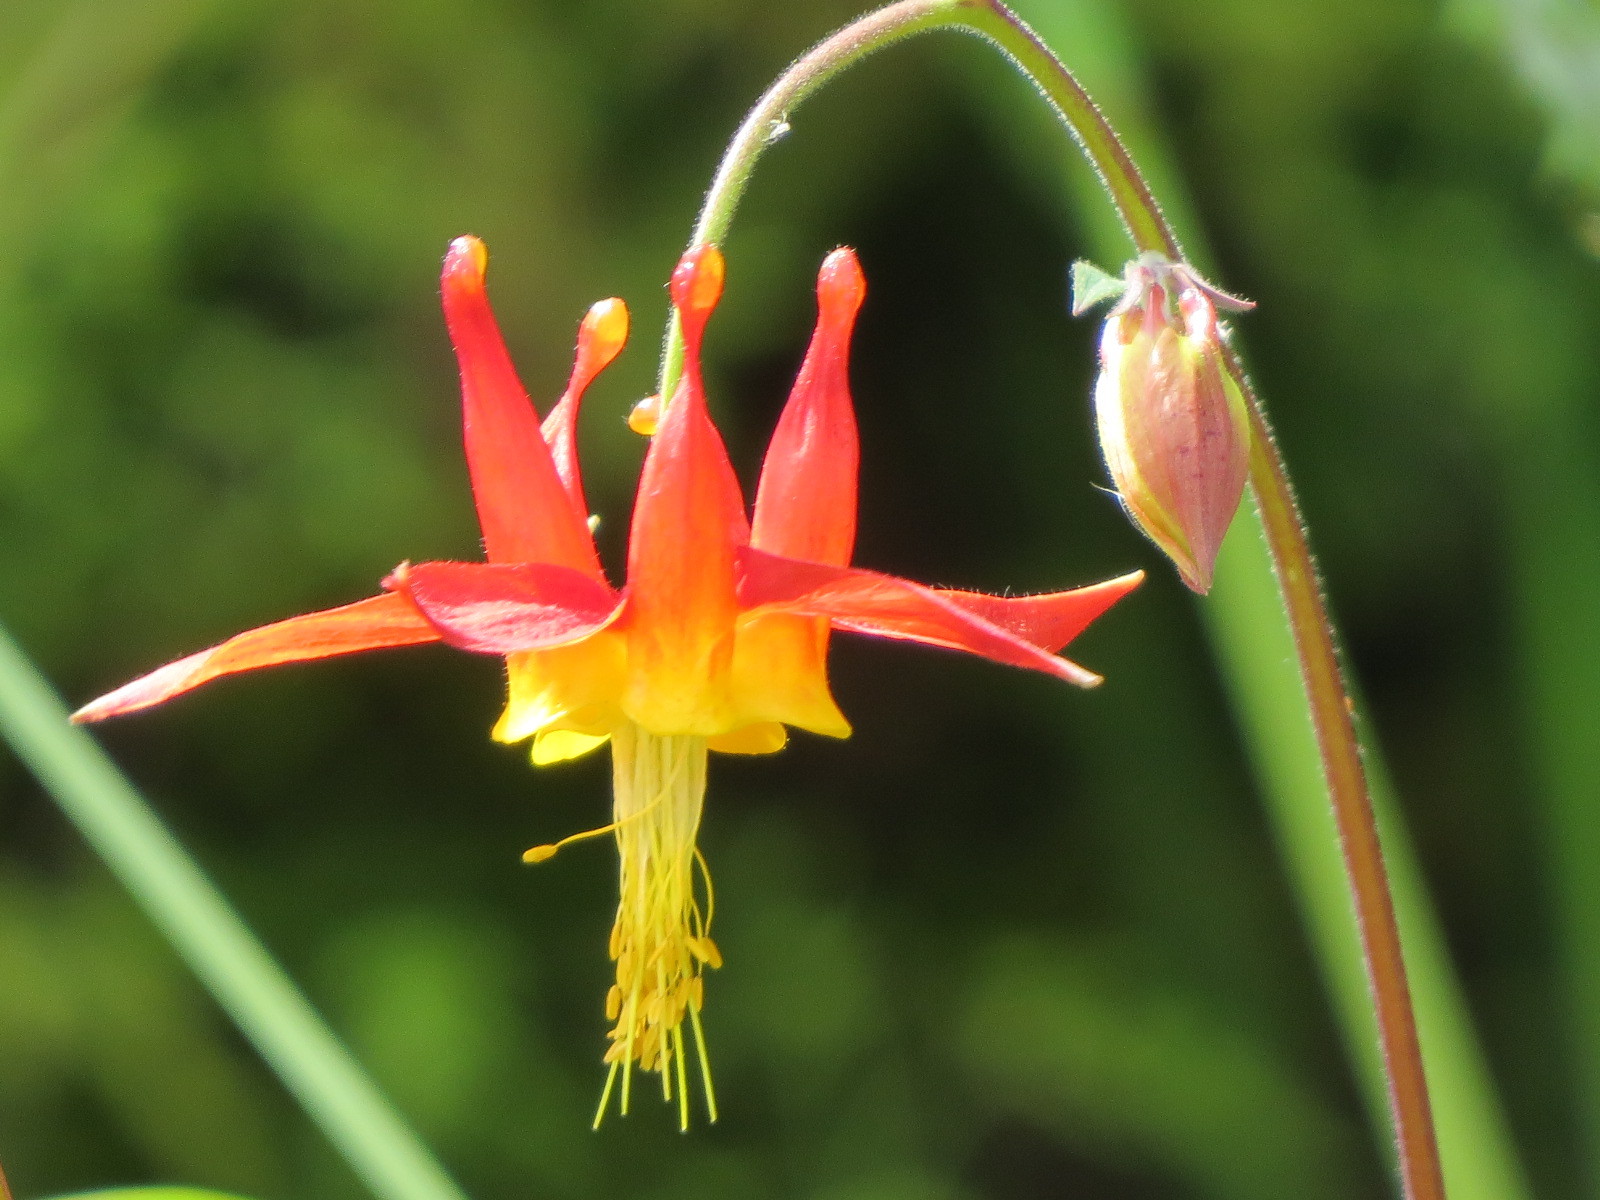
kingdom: Plantae
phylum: Tracheophyta
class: Magnoliopsida
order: Ranunculales
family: Ranunculaceae
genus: Aquilegia
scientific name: Aquilegia formosa
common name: Sitka columbine
